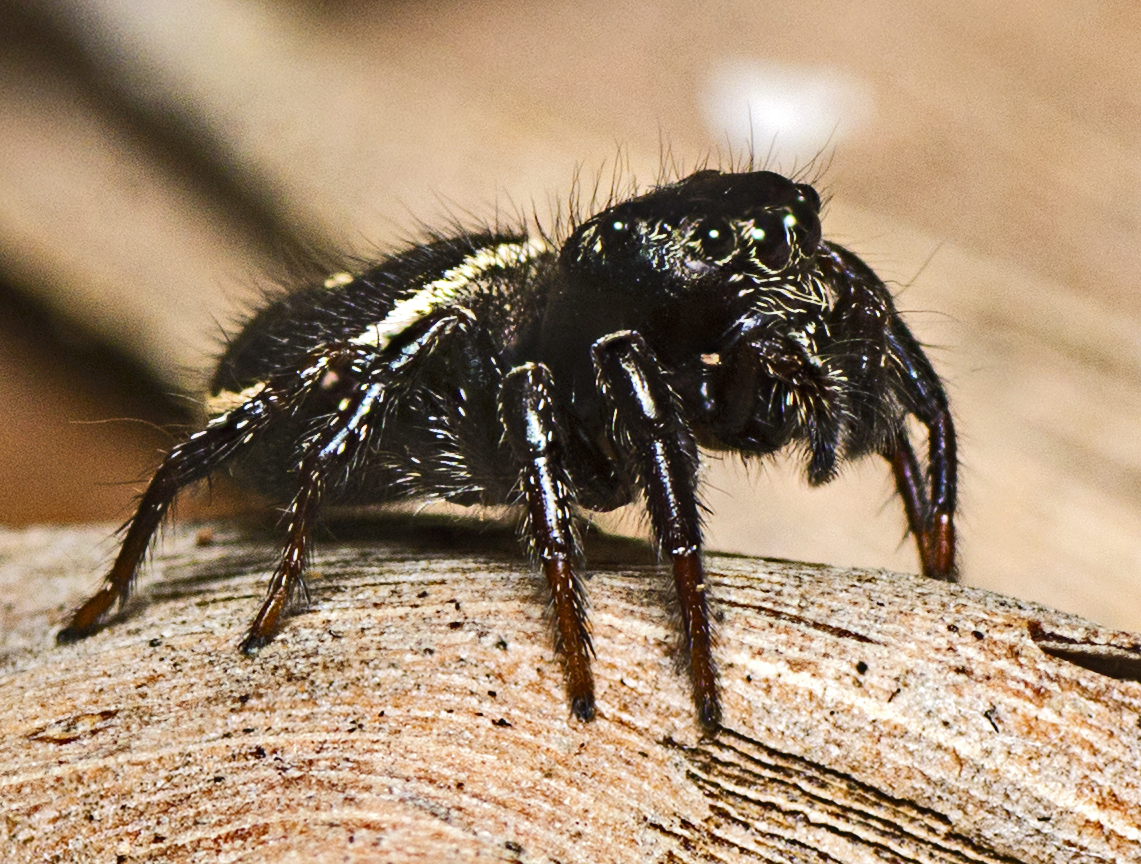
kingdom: Animalia
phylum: Arthropoda
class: Arachnida
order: Araneae
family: Salticidae
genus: Zenodorus
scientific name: Zenodorus orbiculatus
